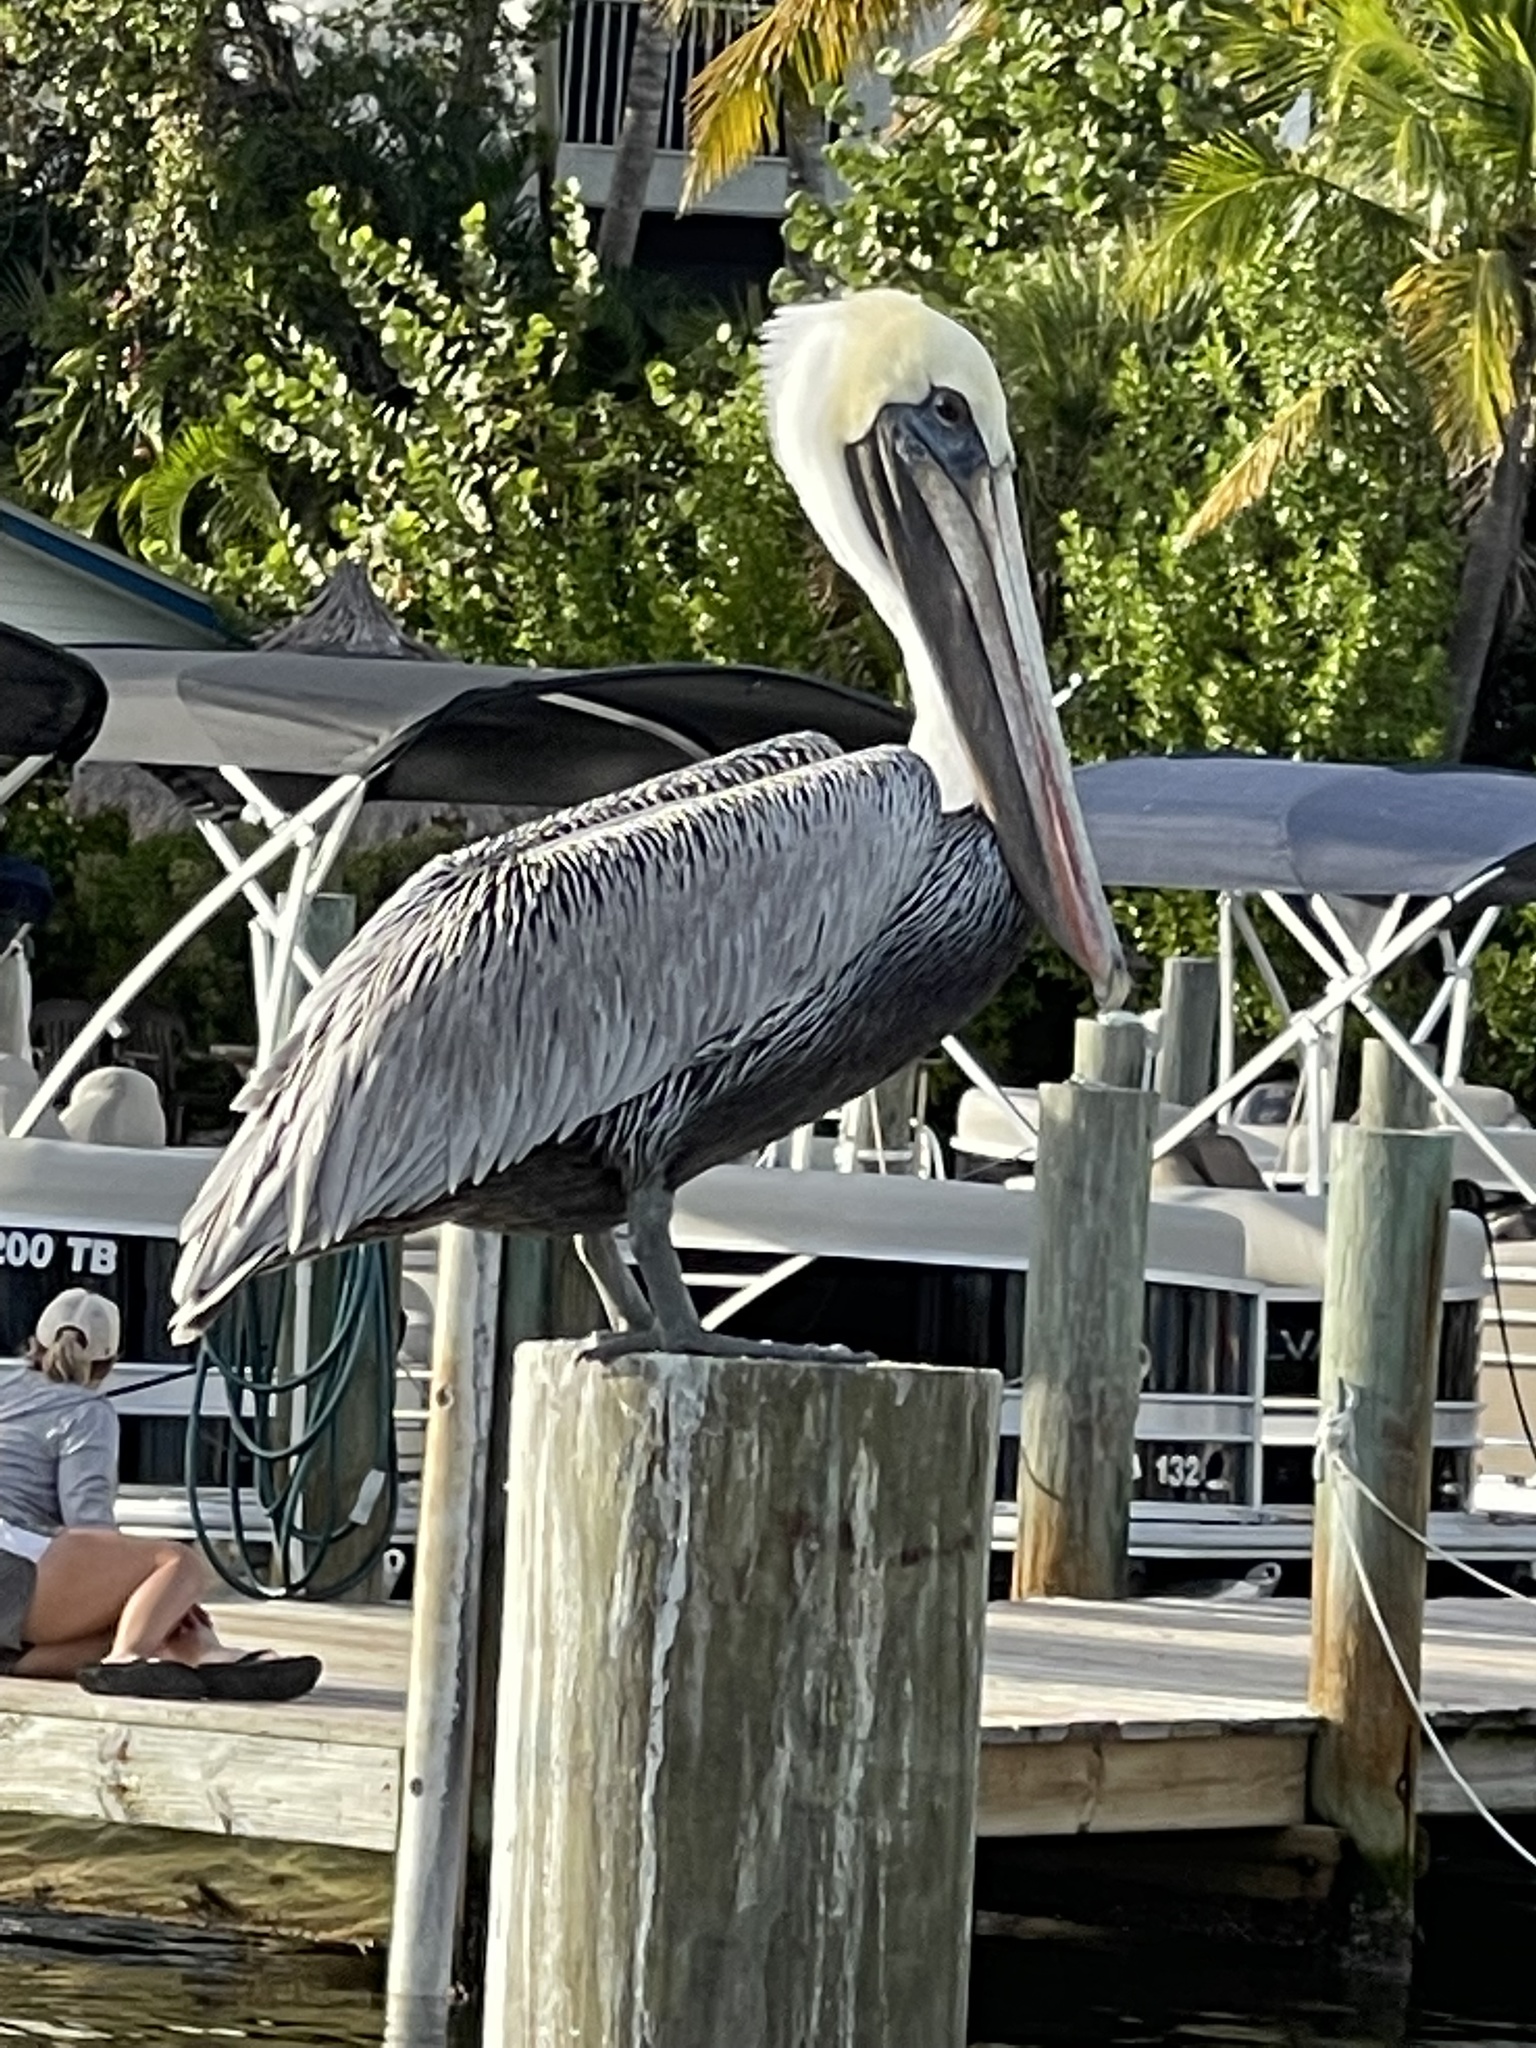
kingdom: Animalia
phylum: Chordata
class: Aves
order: Pelecaniformes
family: Pelecanidae
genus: Pelecanus
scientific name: Pelecanus occidentalis
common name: Brown pelican
